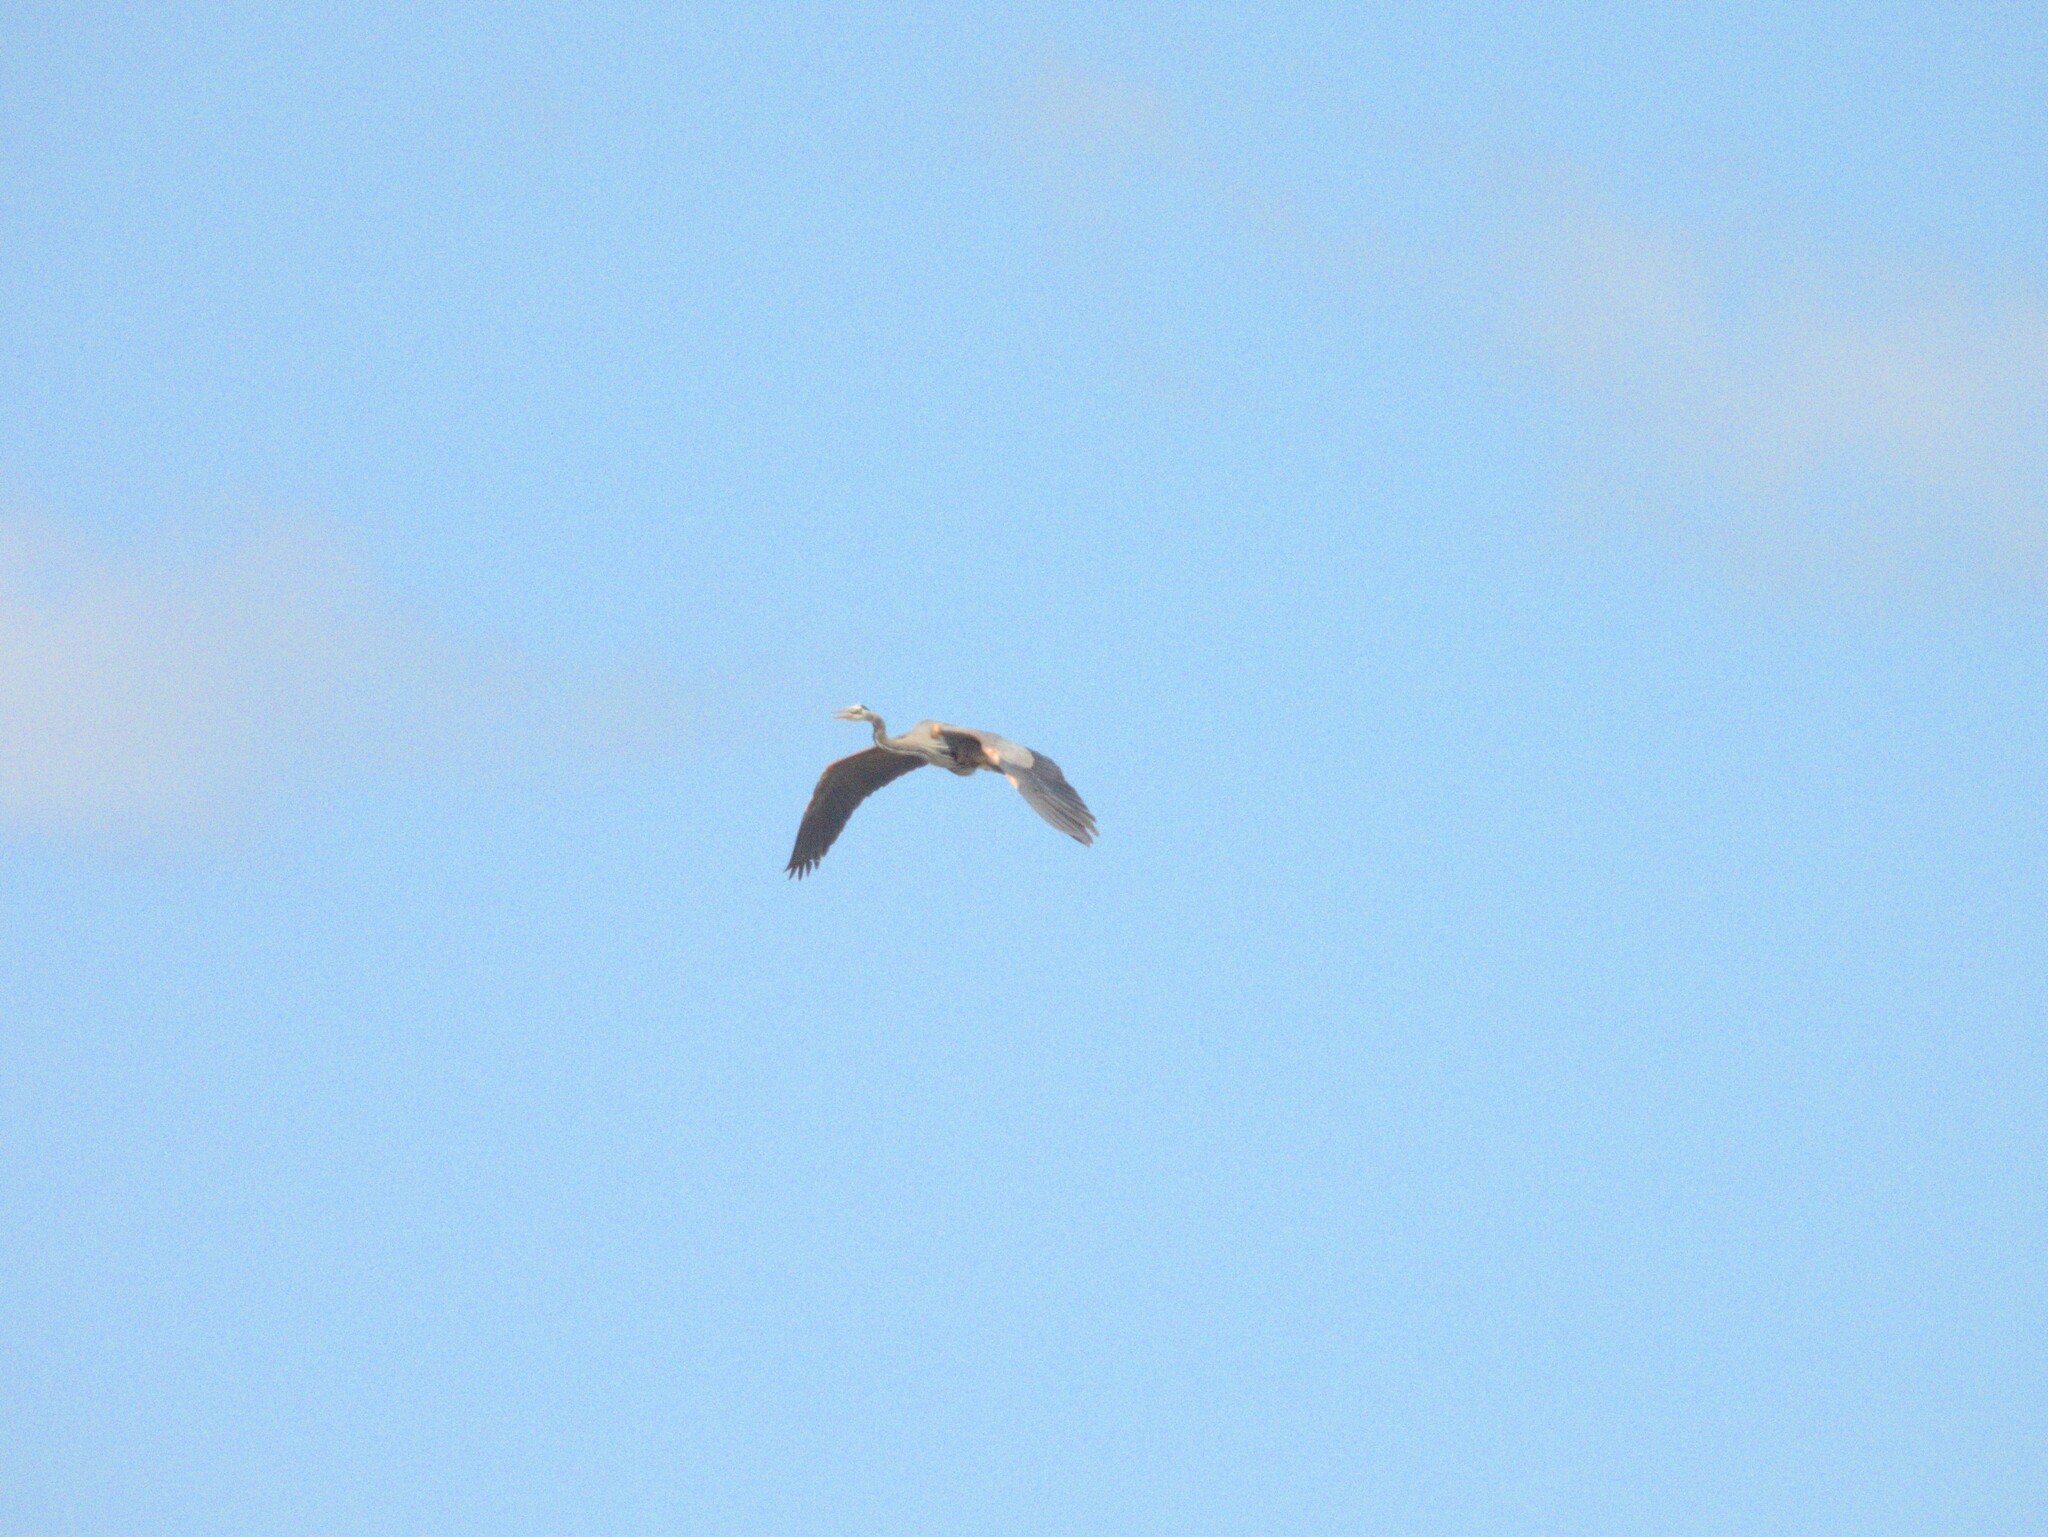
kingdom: Animalia
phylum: Chordata
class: Aves
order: Pelecaniformes
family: Ardeidae
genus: Ardea
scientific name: Ardea herodias
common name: Great blue heron
